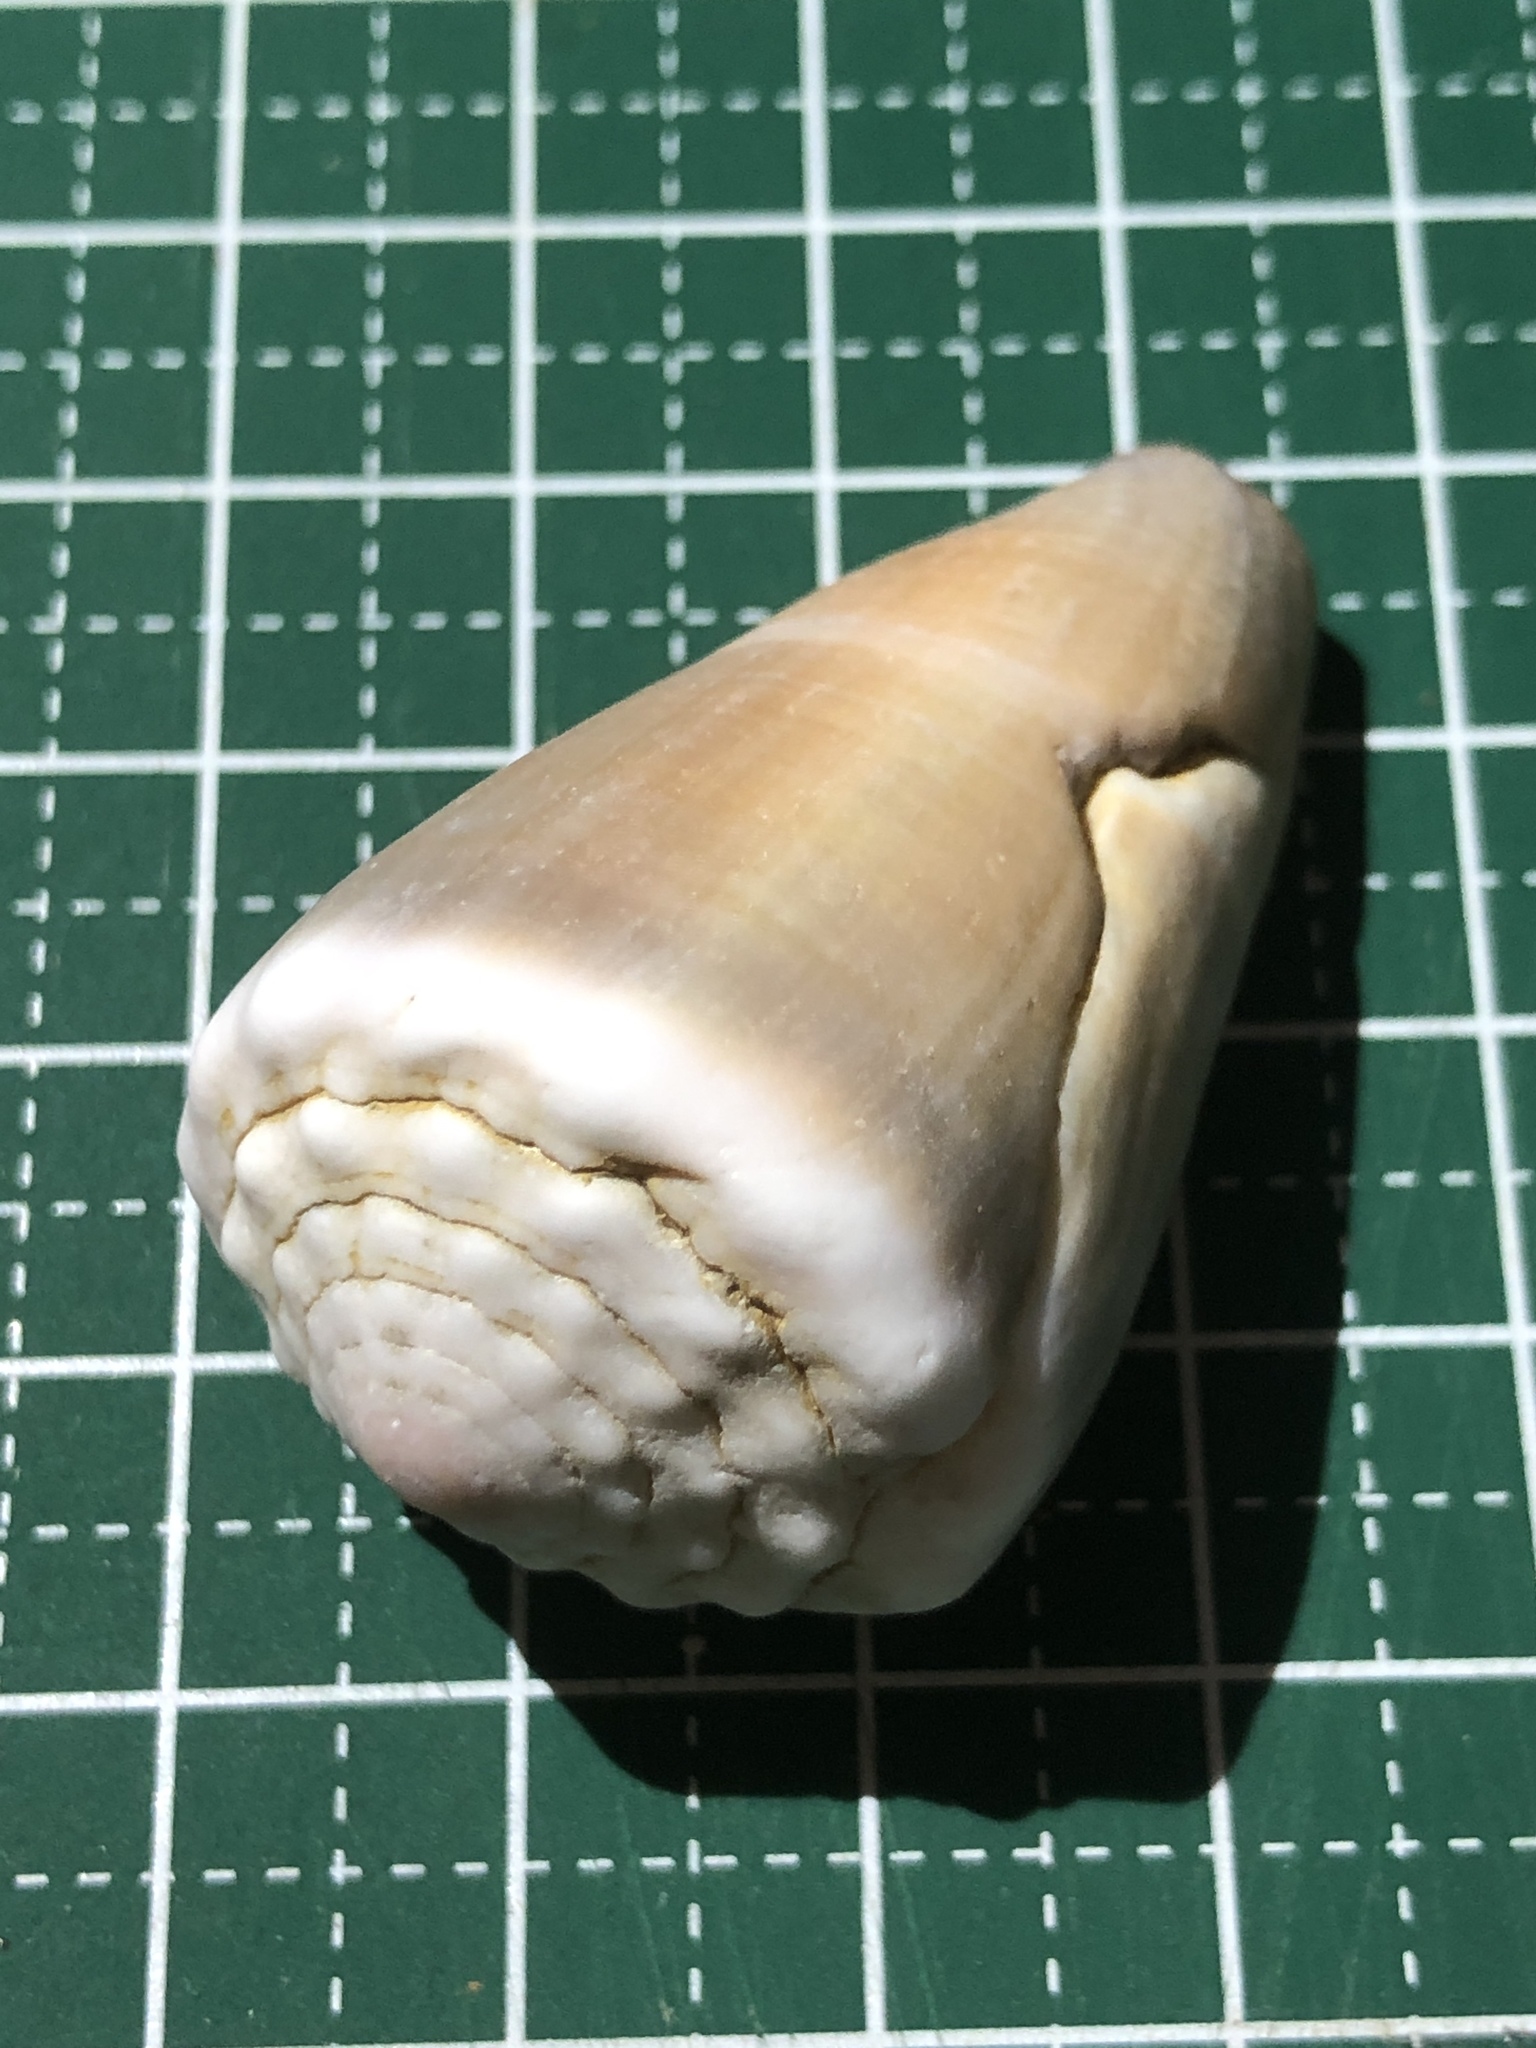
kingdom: Animalia
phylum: Mollusca
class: Gastropoda
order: Neogastropoda
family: Conidae
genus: Conus
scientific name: Conus lividus
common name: Livid cone
